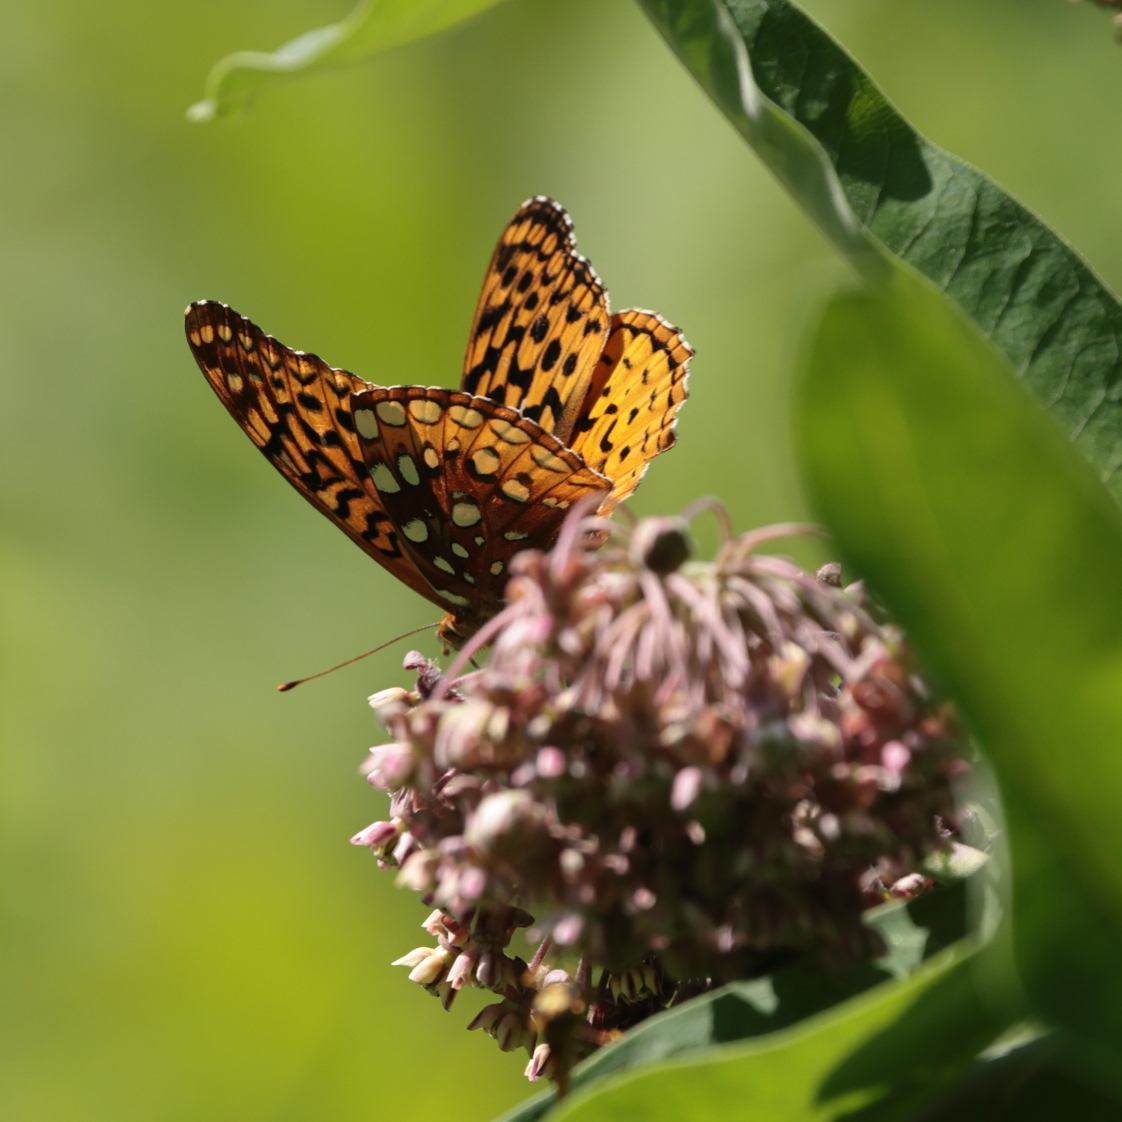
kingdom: Animalia
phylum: Arthropoda
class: Insecta
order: Lepidoptera
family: Nymphalidae
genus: Speyeria
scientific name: Speyeria cybele
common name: Great spangled fritillary
